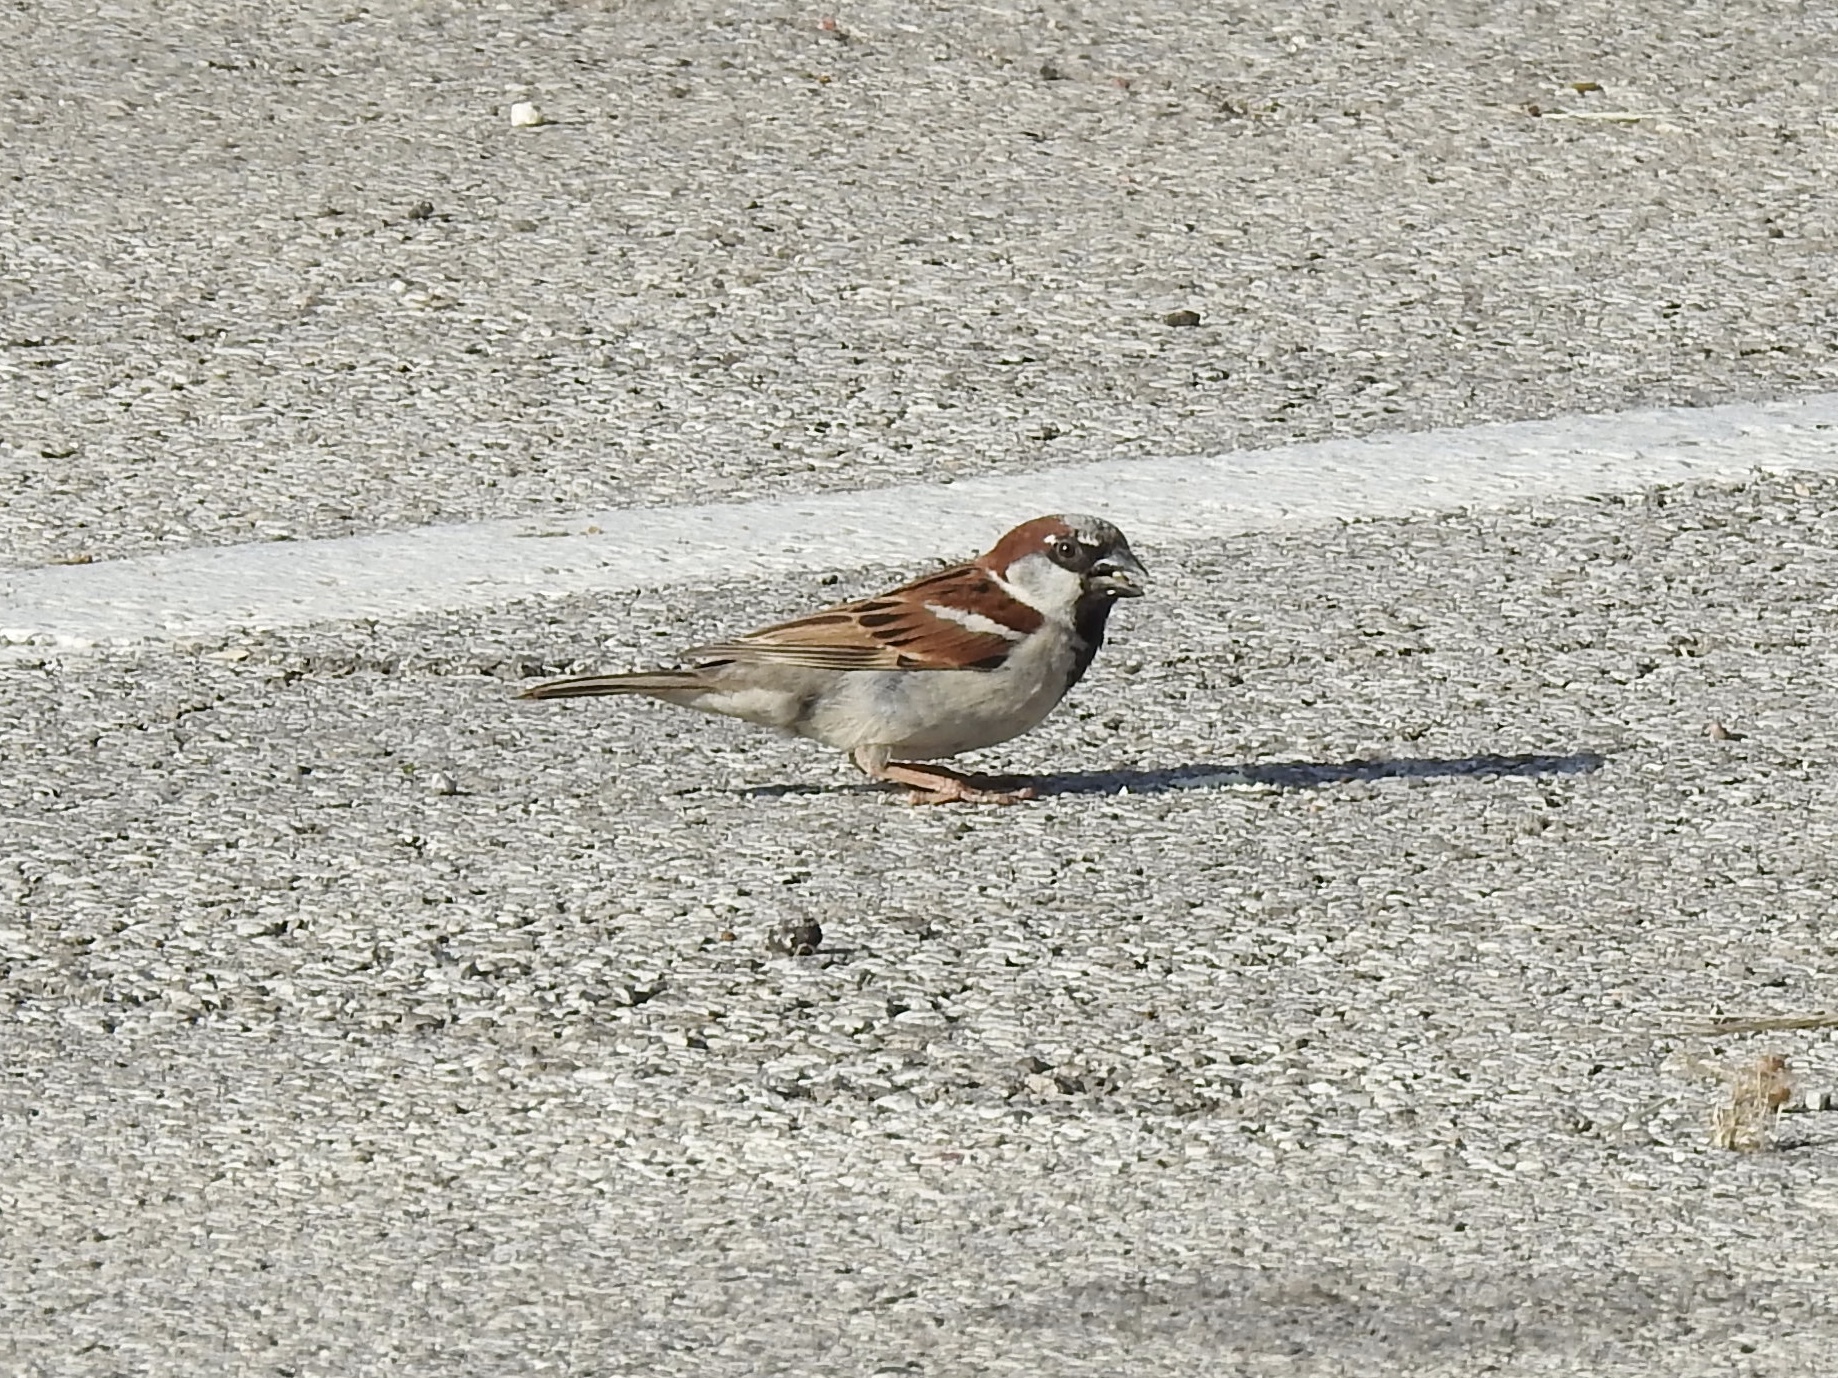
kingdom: Animalia
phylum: Chordata
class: Aves
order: Passeriformes
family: Passeridae
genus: Passer
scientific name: Passer domesticus
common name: House sparrow
